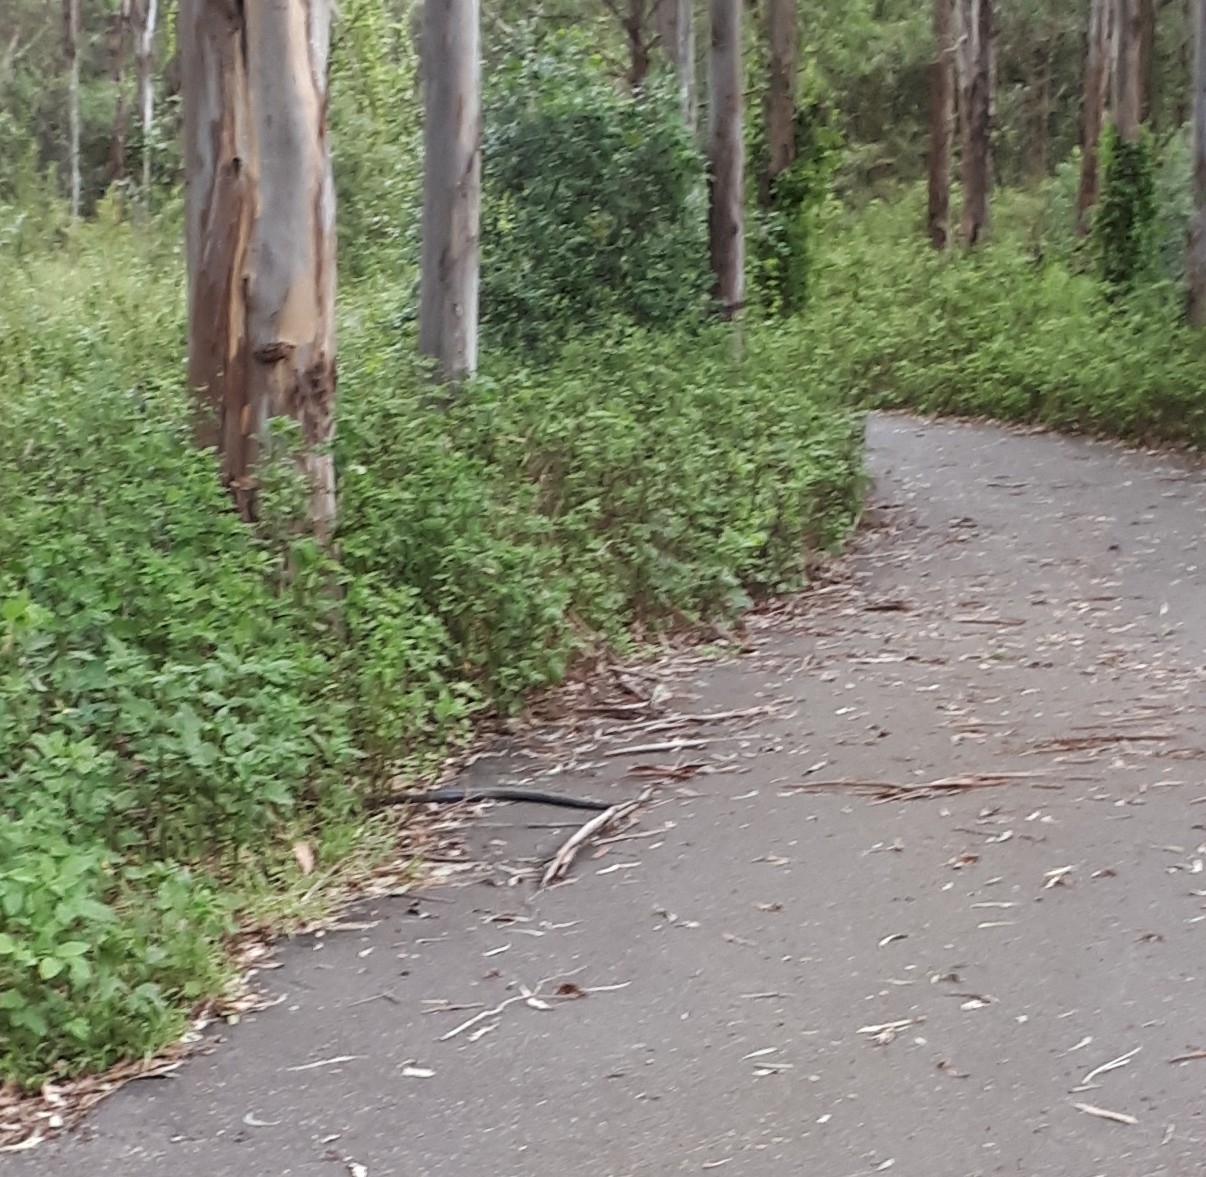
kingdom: Animalia
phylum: Chordata
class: Squamata
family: Elapidae
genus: Pseudechis
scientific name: Pseudechis porphyriacus
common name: Australian black snake
